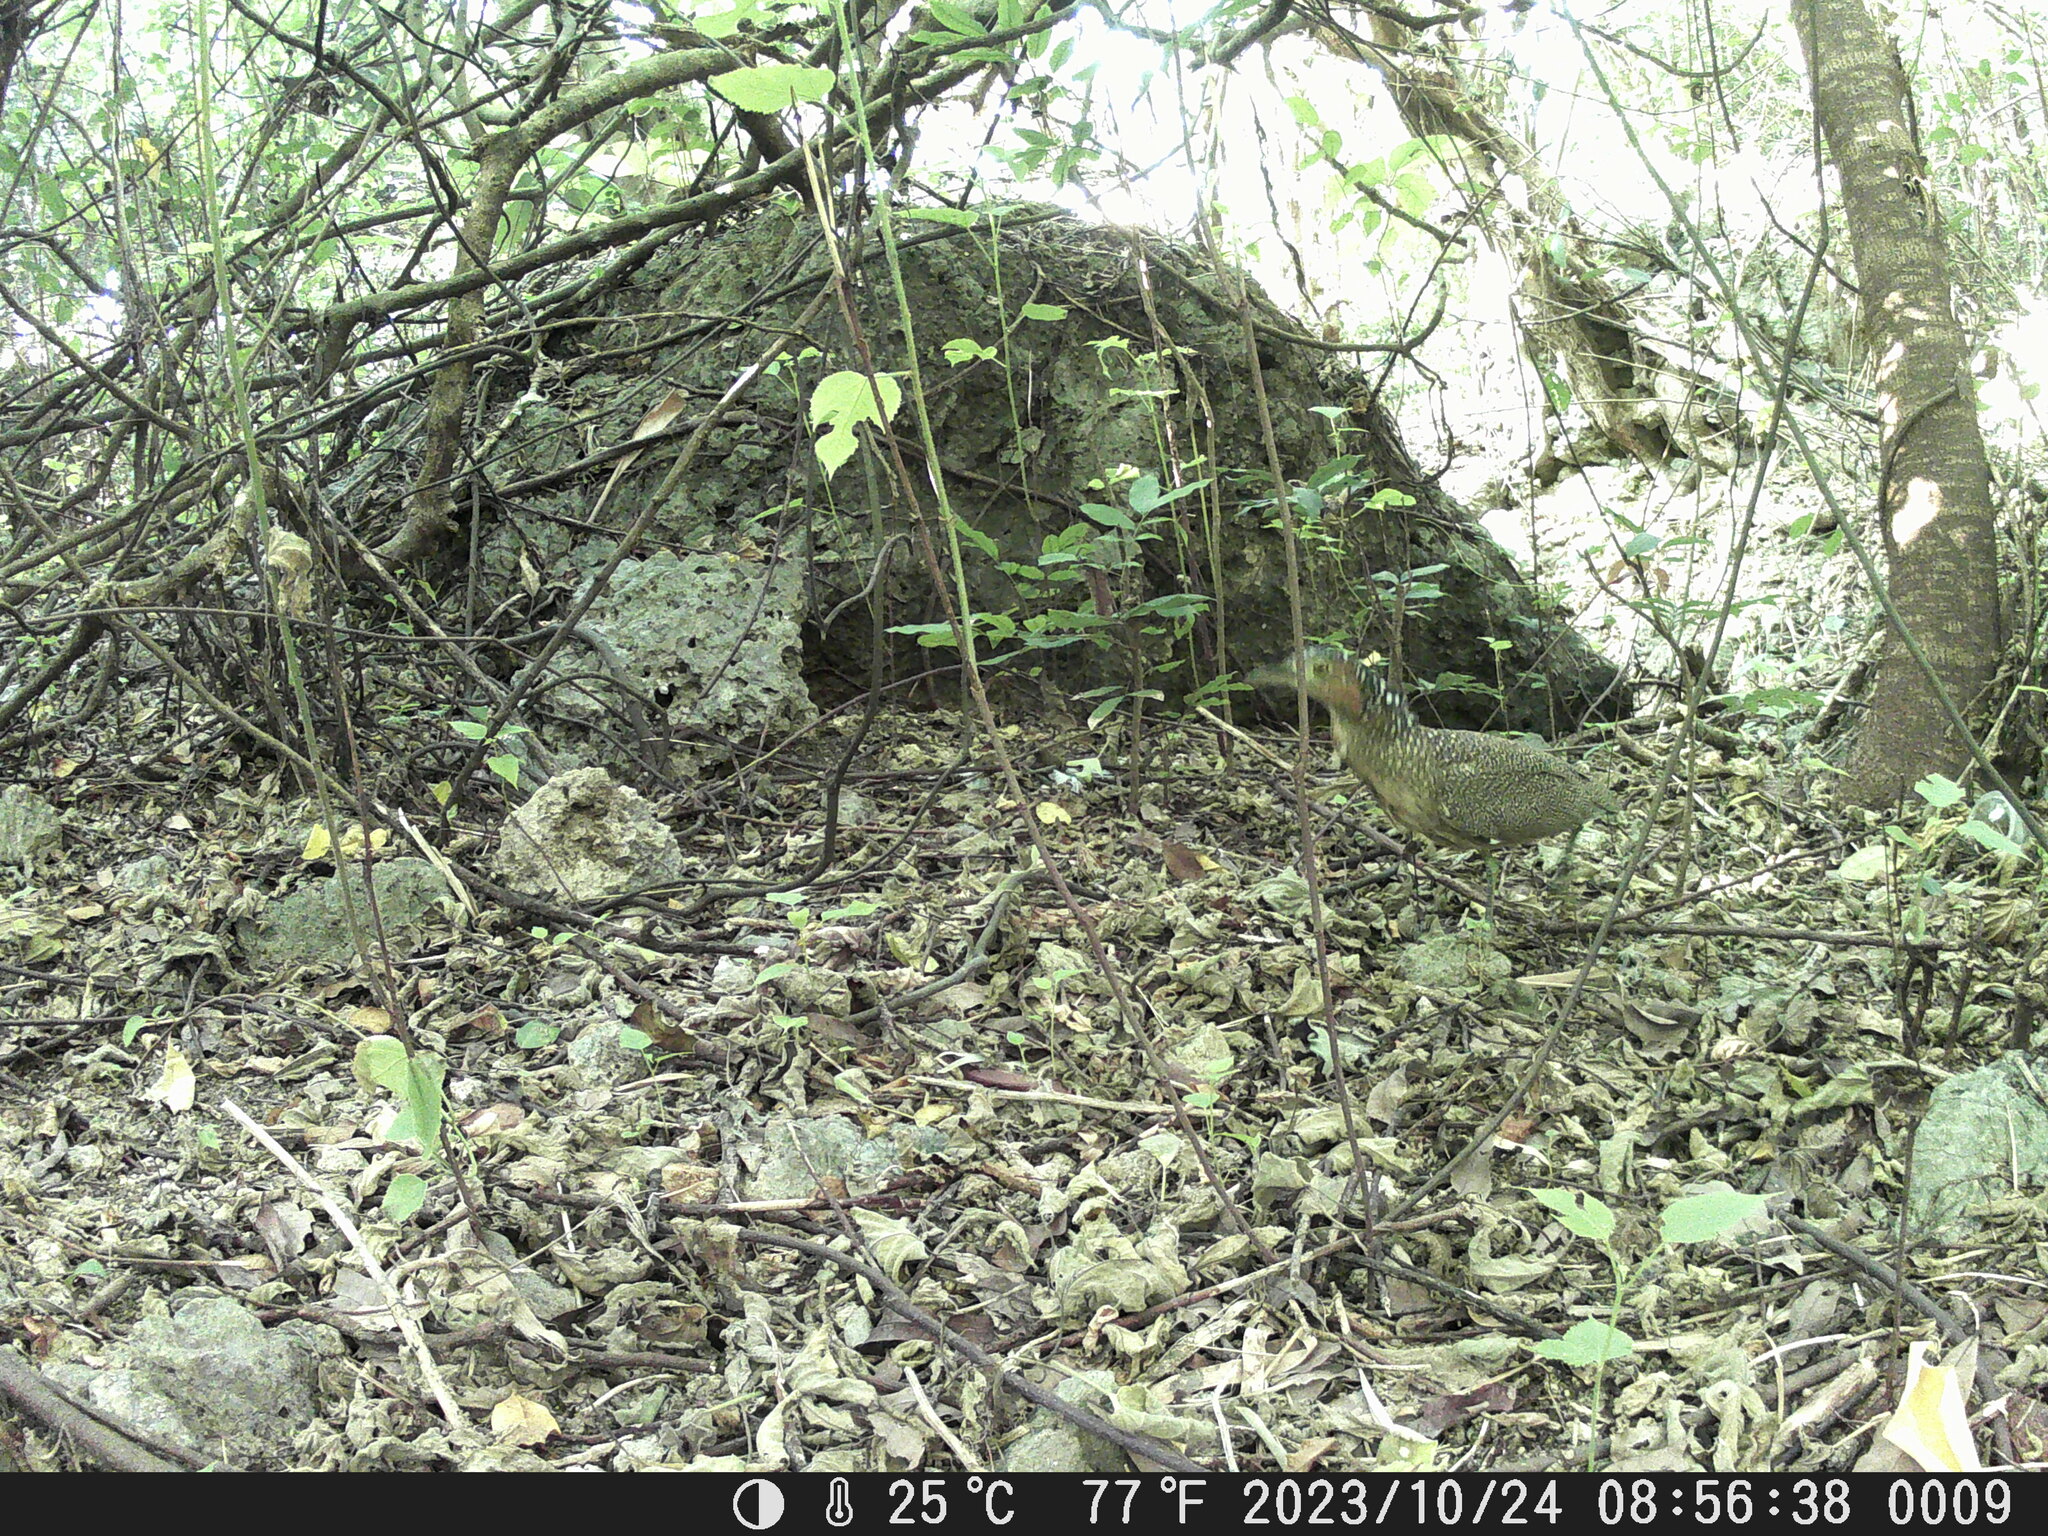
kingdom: Animalia
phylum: Chordata
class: Aves
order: Pelecaniformes
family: Ardeidae
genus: Gorsachius
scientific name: Gorsachius melanolophus
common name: Malayan night heron
